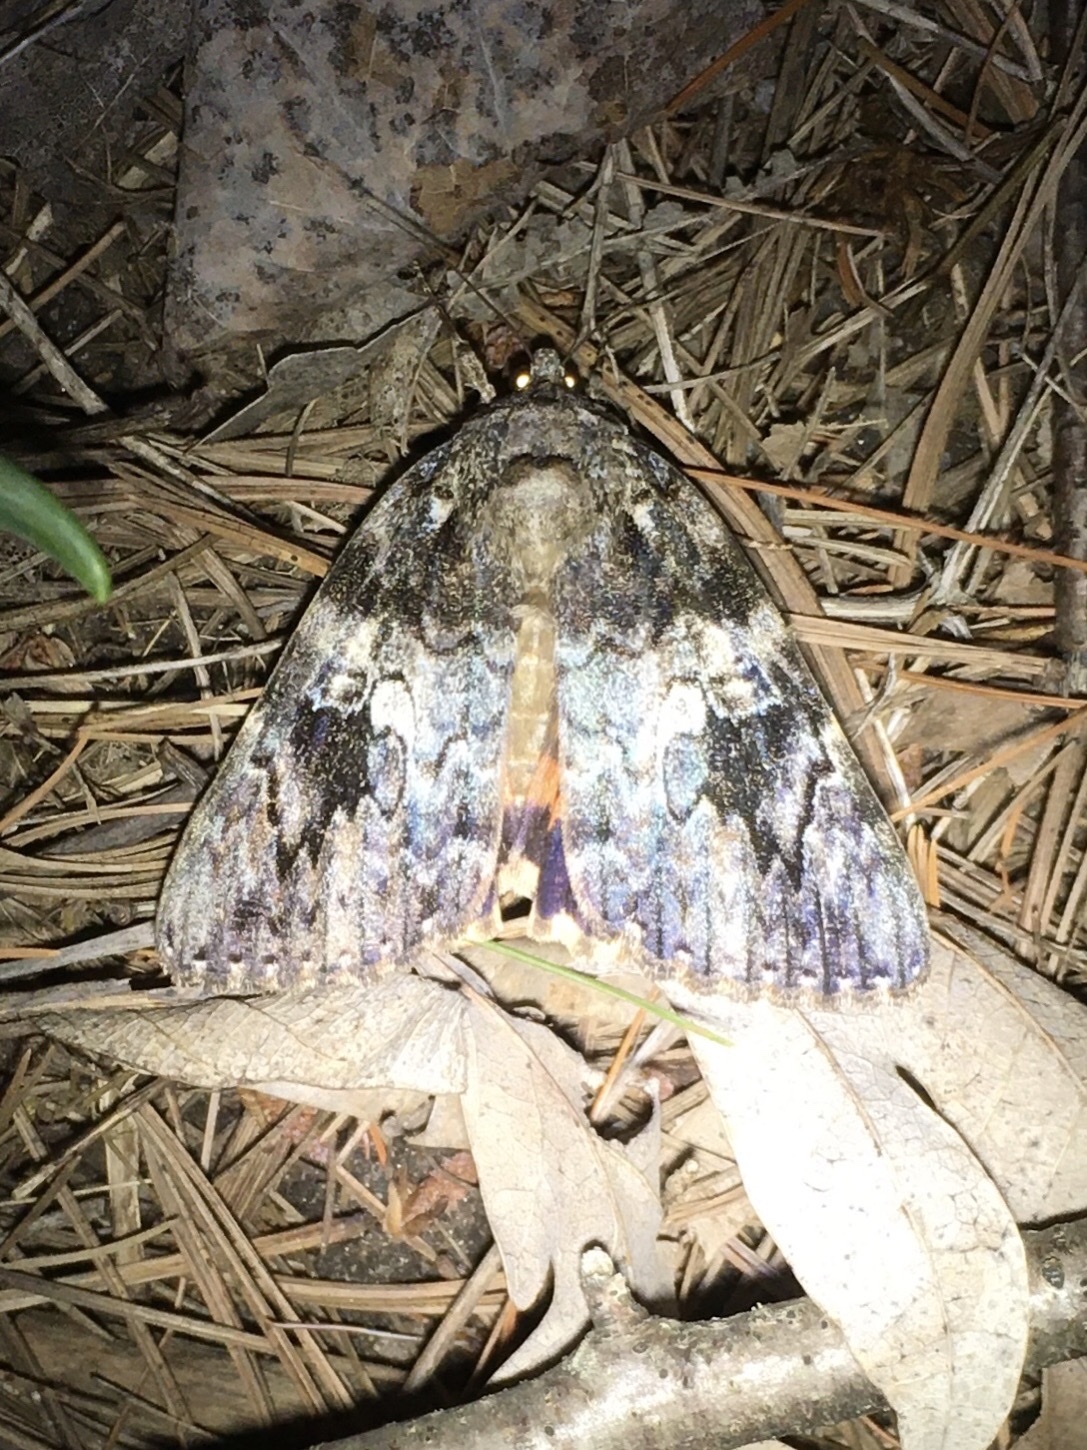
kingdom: Animalia
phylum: Arthropoda
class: Insecta
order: Lepidoptera
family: Erebidae
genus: Catocala
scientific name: Catocala ilia
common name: Ilia underwing
